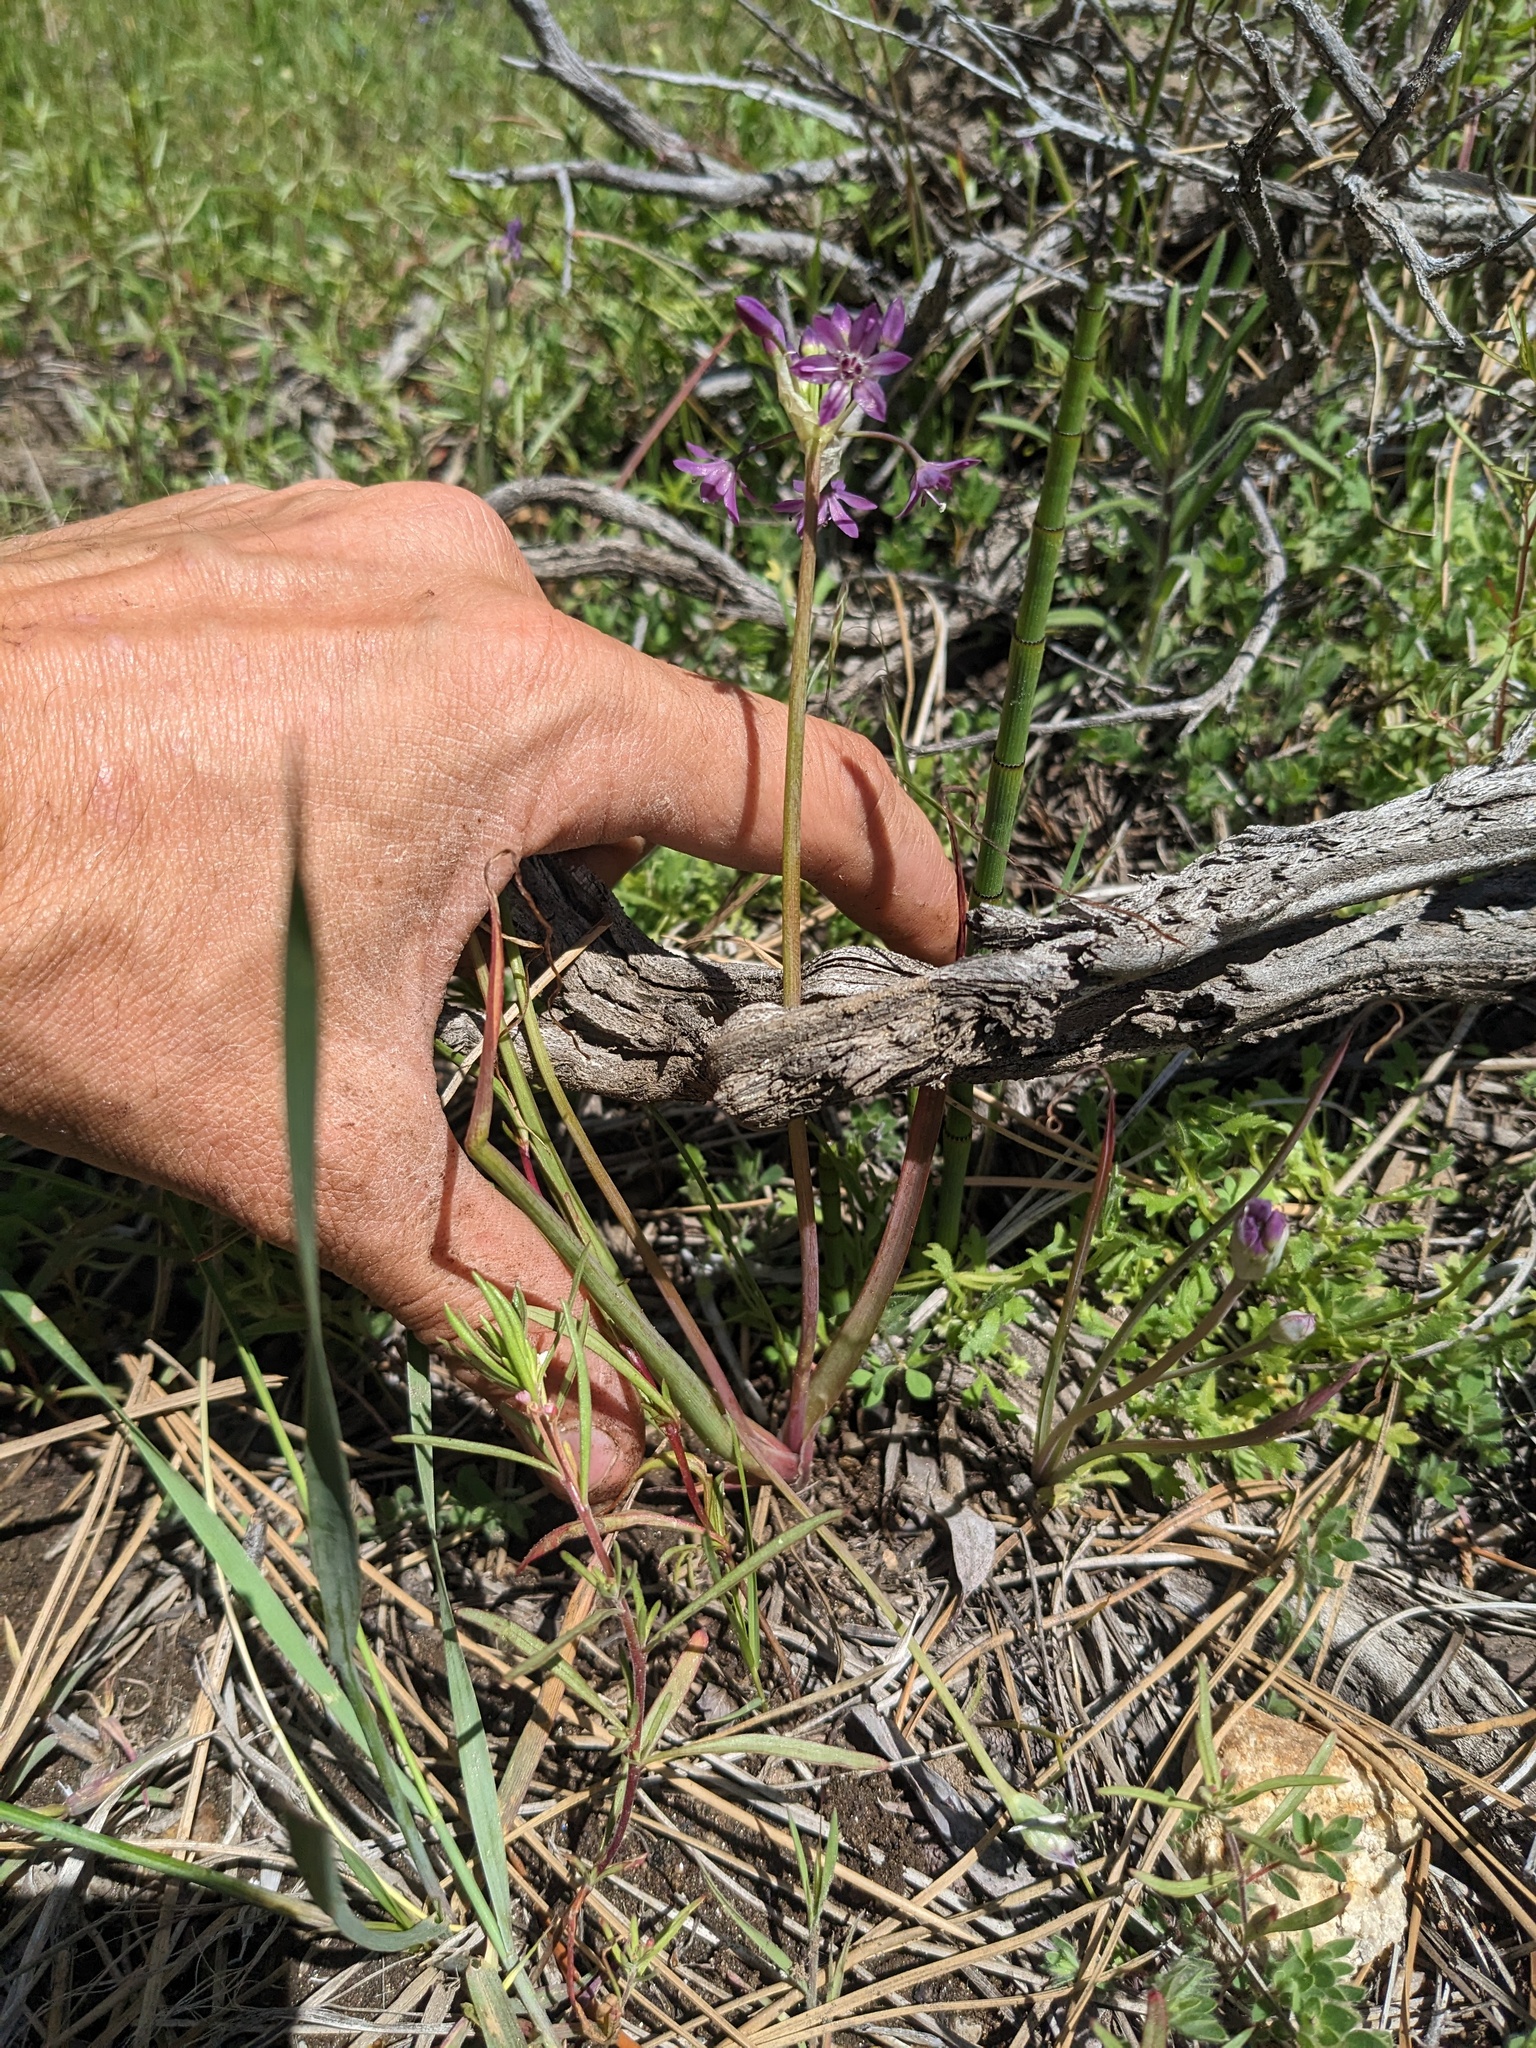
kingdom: Plantae
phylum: Tracheophyta
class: Liliopsida
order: Asparagales
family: Amaryllidaceae
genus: Allium
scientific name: Allium campanulatum
